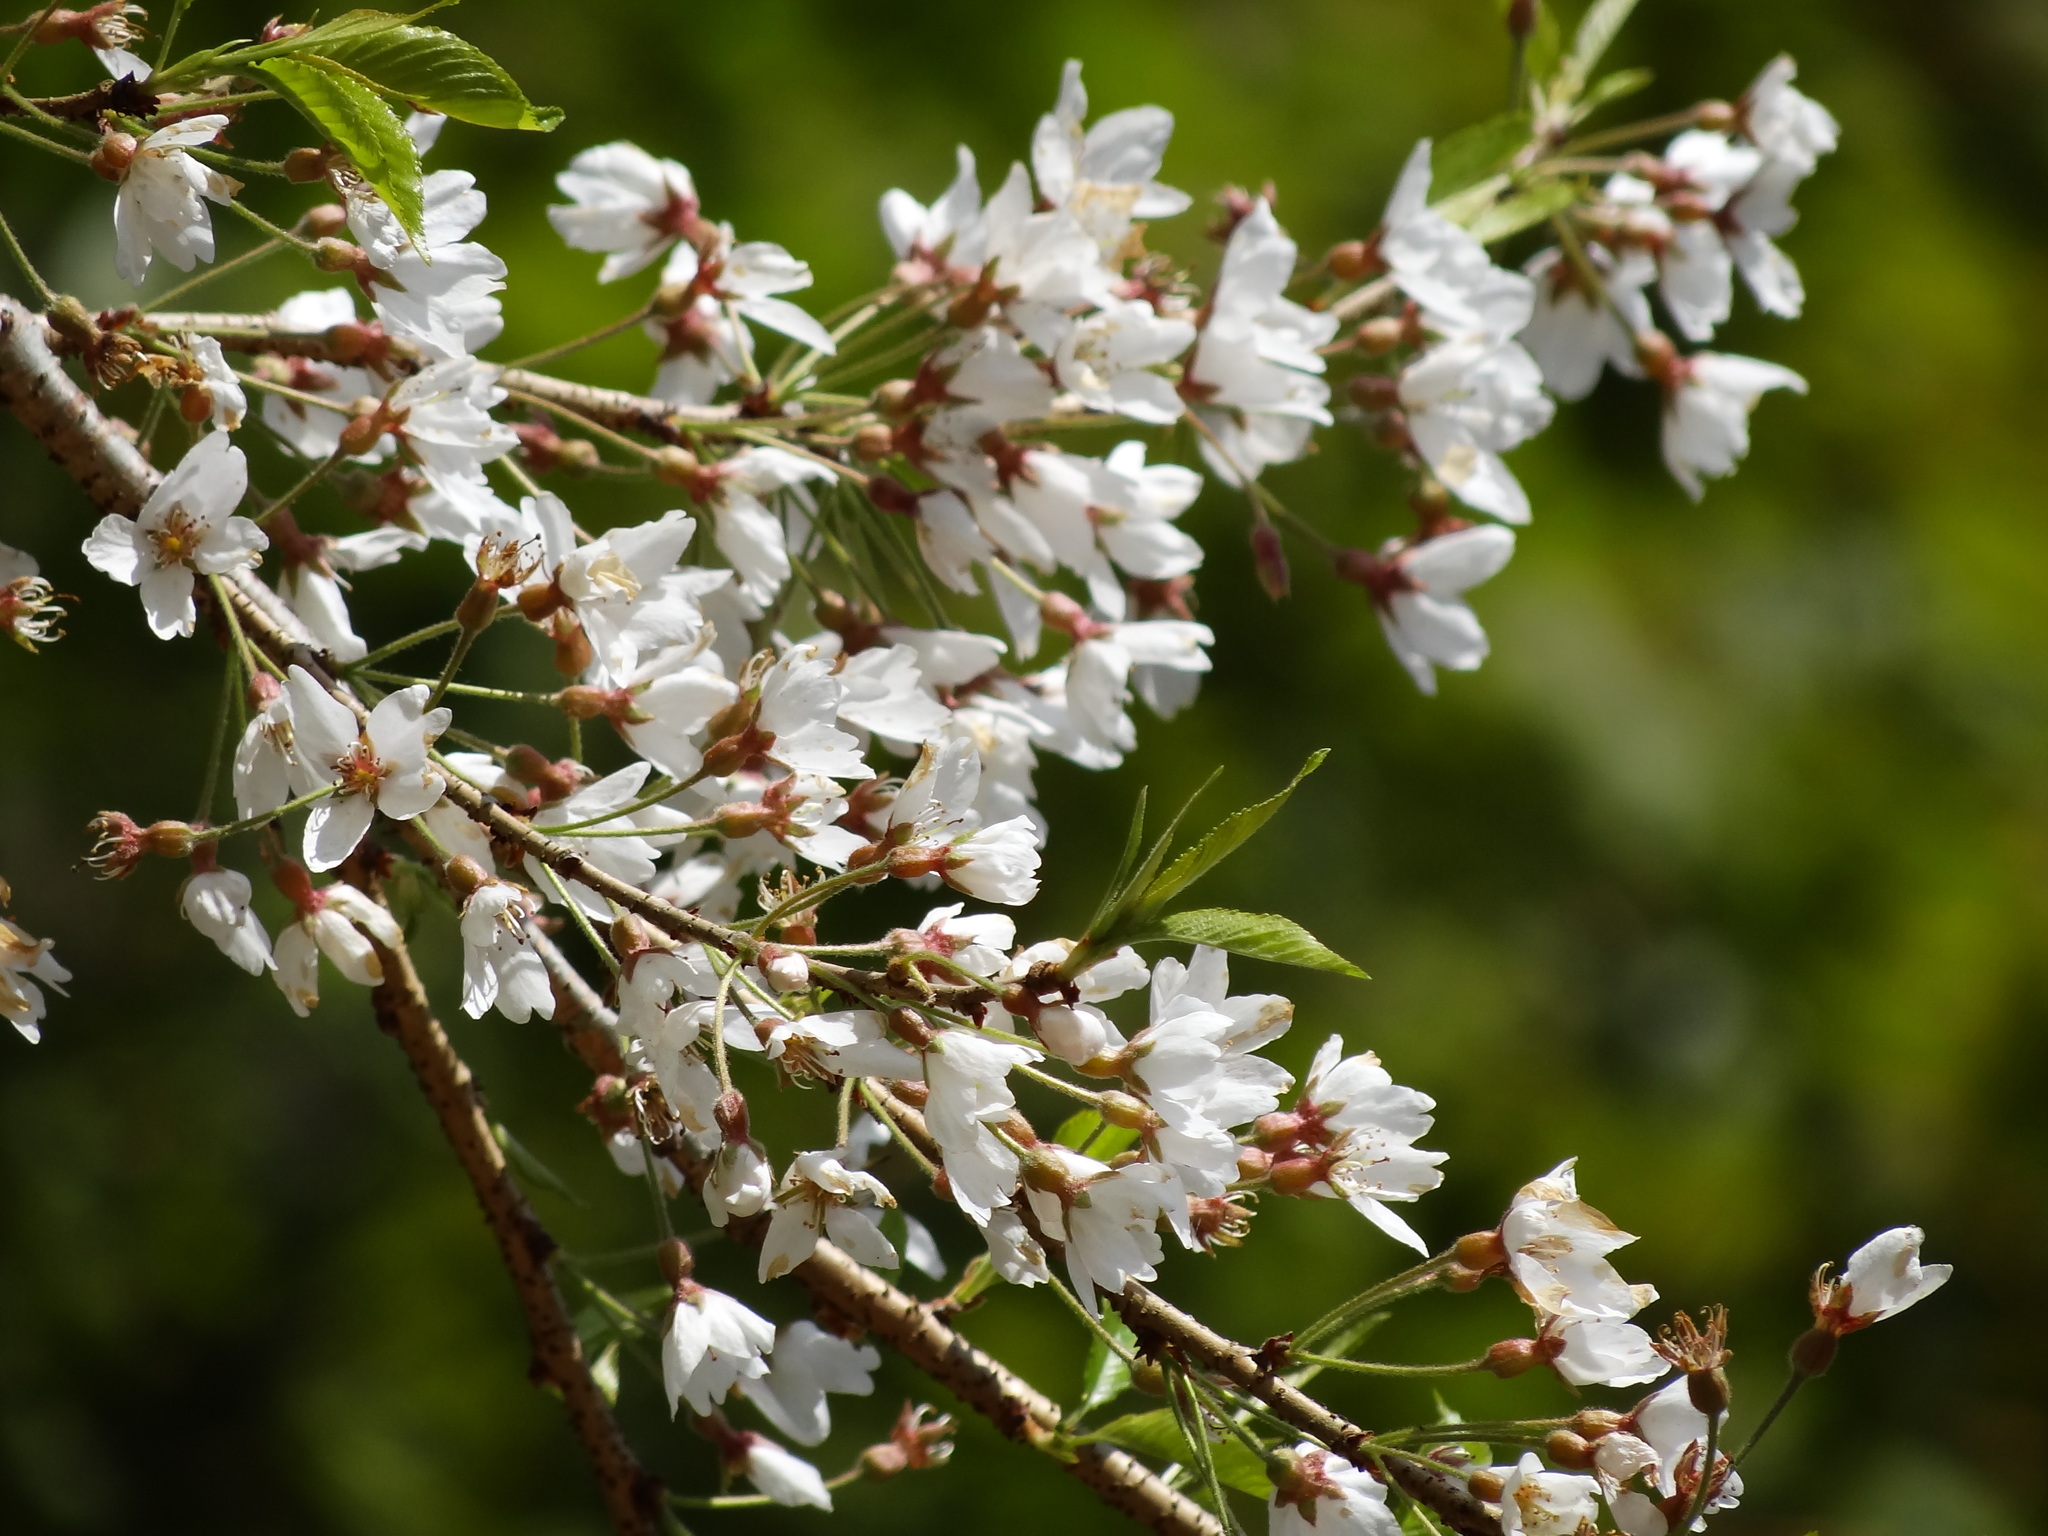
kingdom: Plantae
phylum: Tracheophyta
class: Magnoliopsida
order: Rosales
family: Rosaceae
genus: Prunus
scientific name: Prunus itosakura
